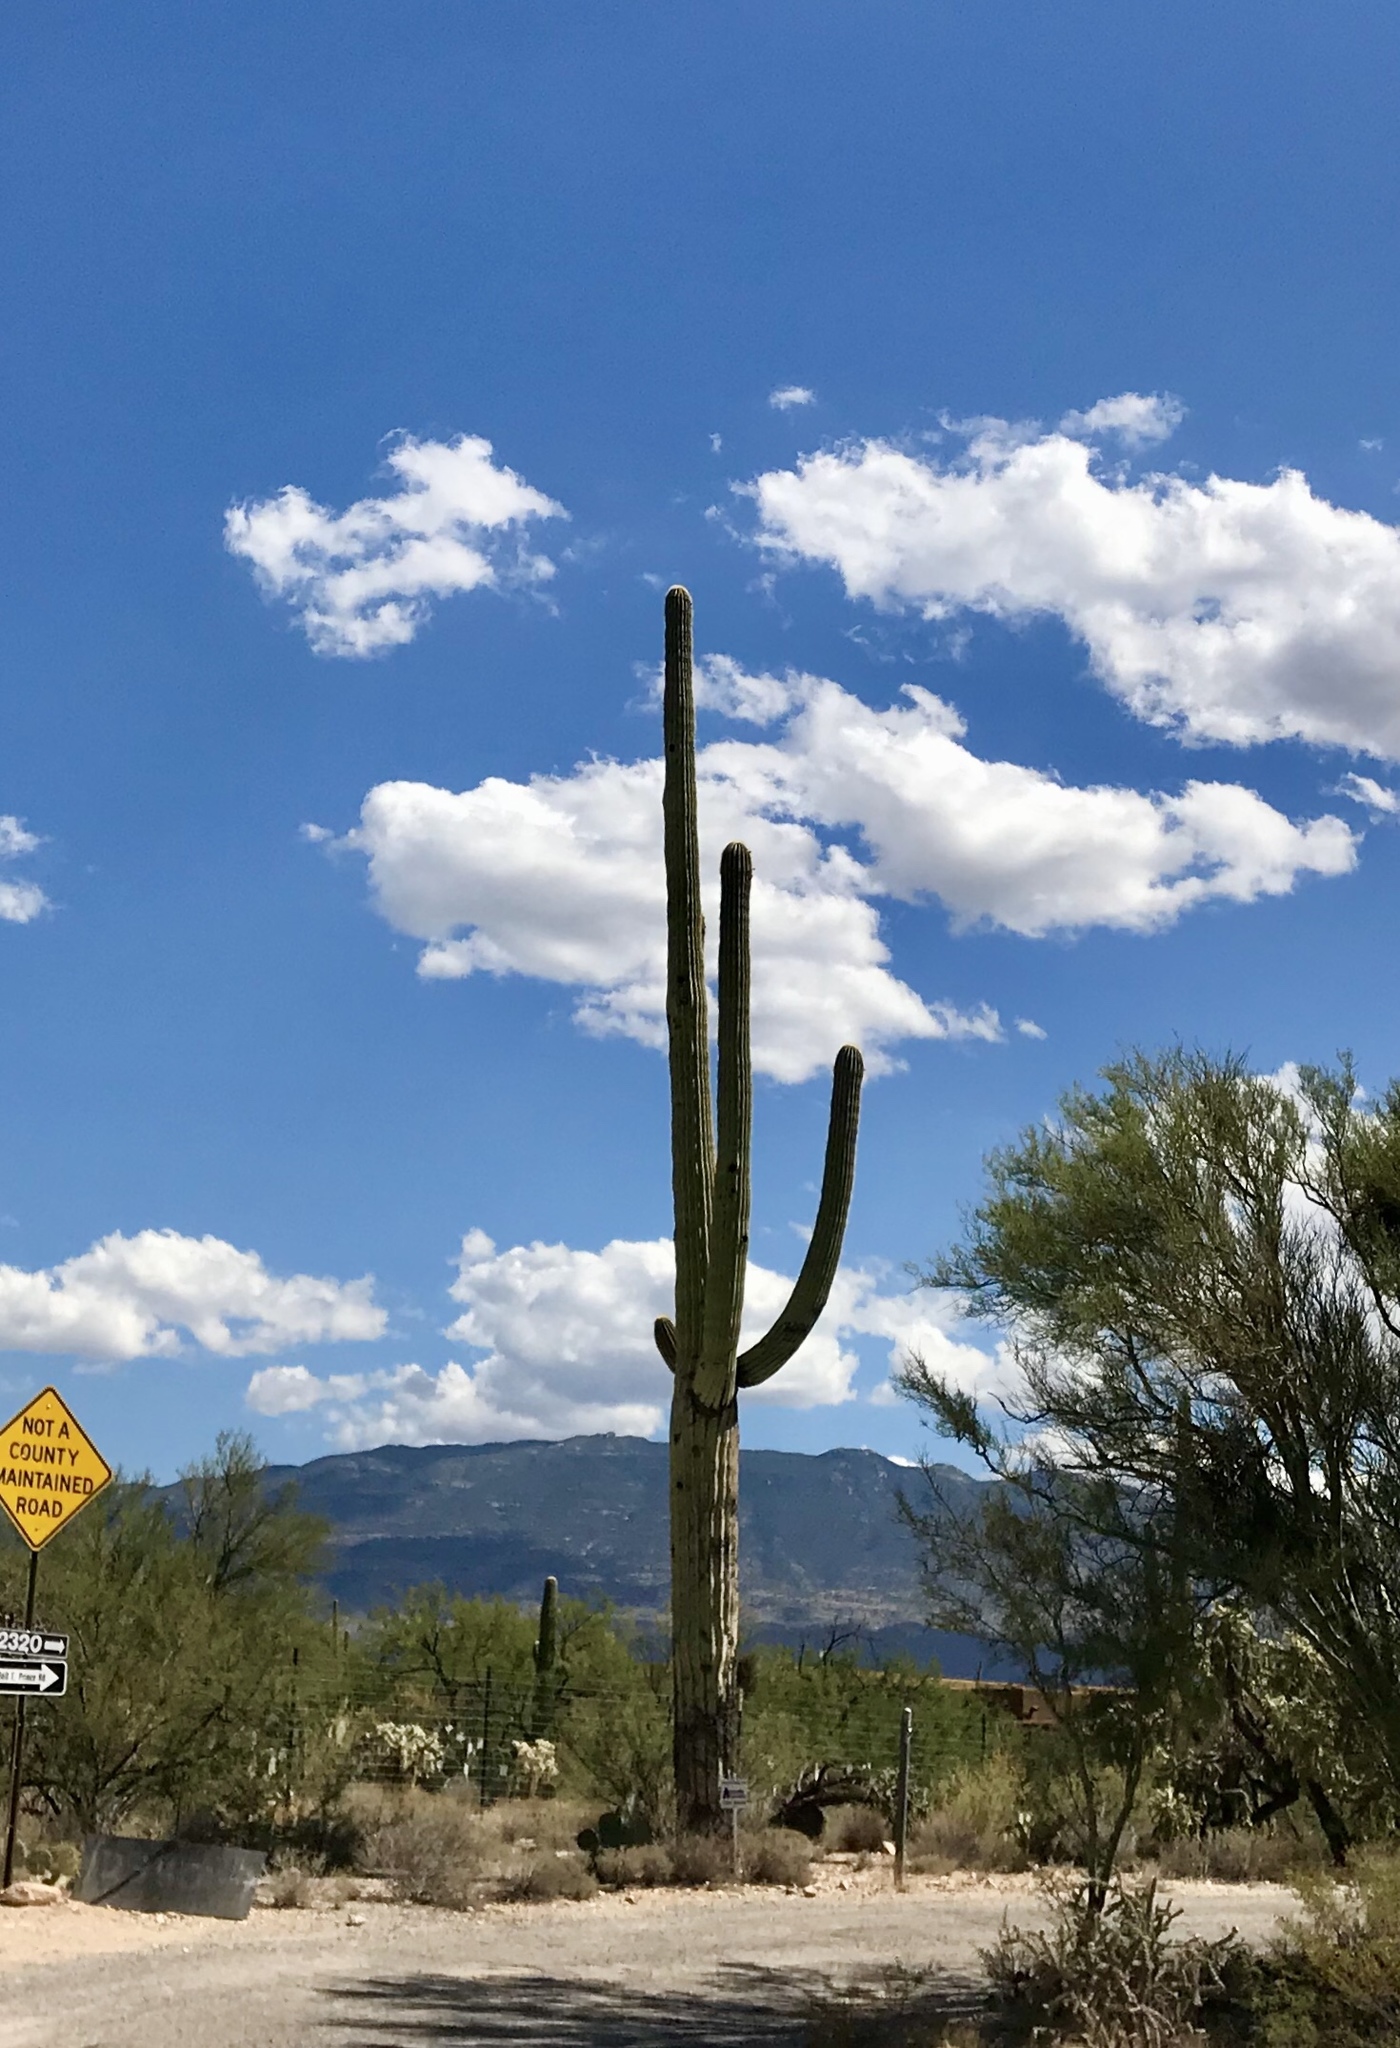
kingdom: Plantae
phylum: Tracheophyta
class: Magnoliopsida
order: Caryophyllales
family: Cactaceae
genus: Carnegiea
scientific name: Carnegiea gigantea
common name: Saguaro
